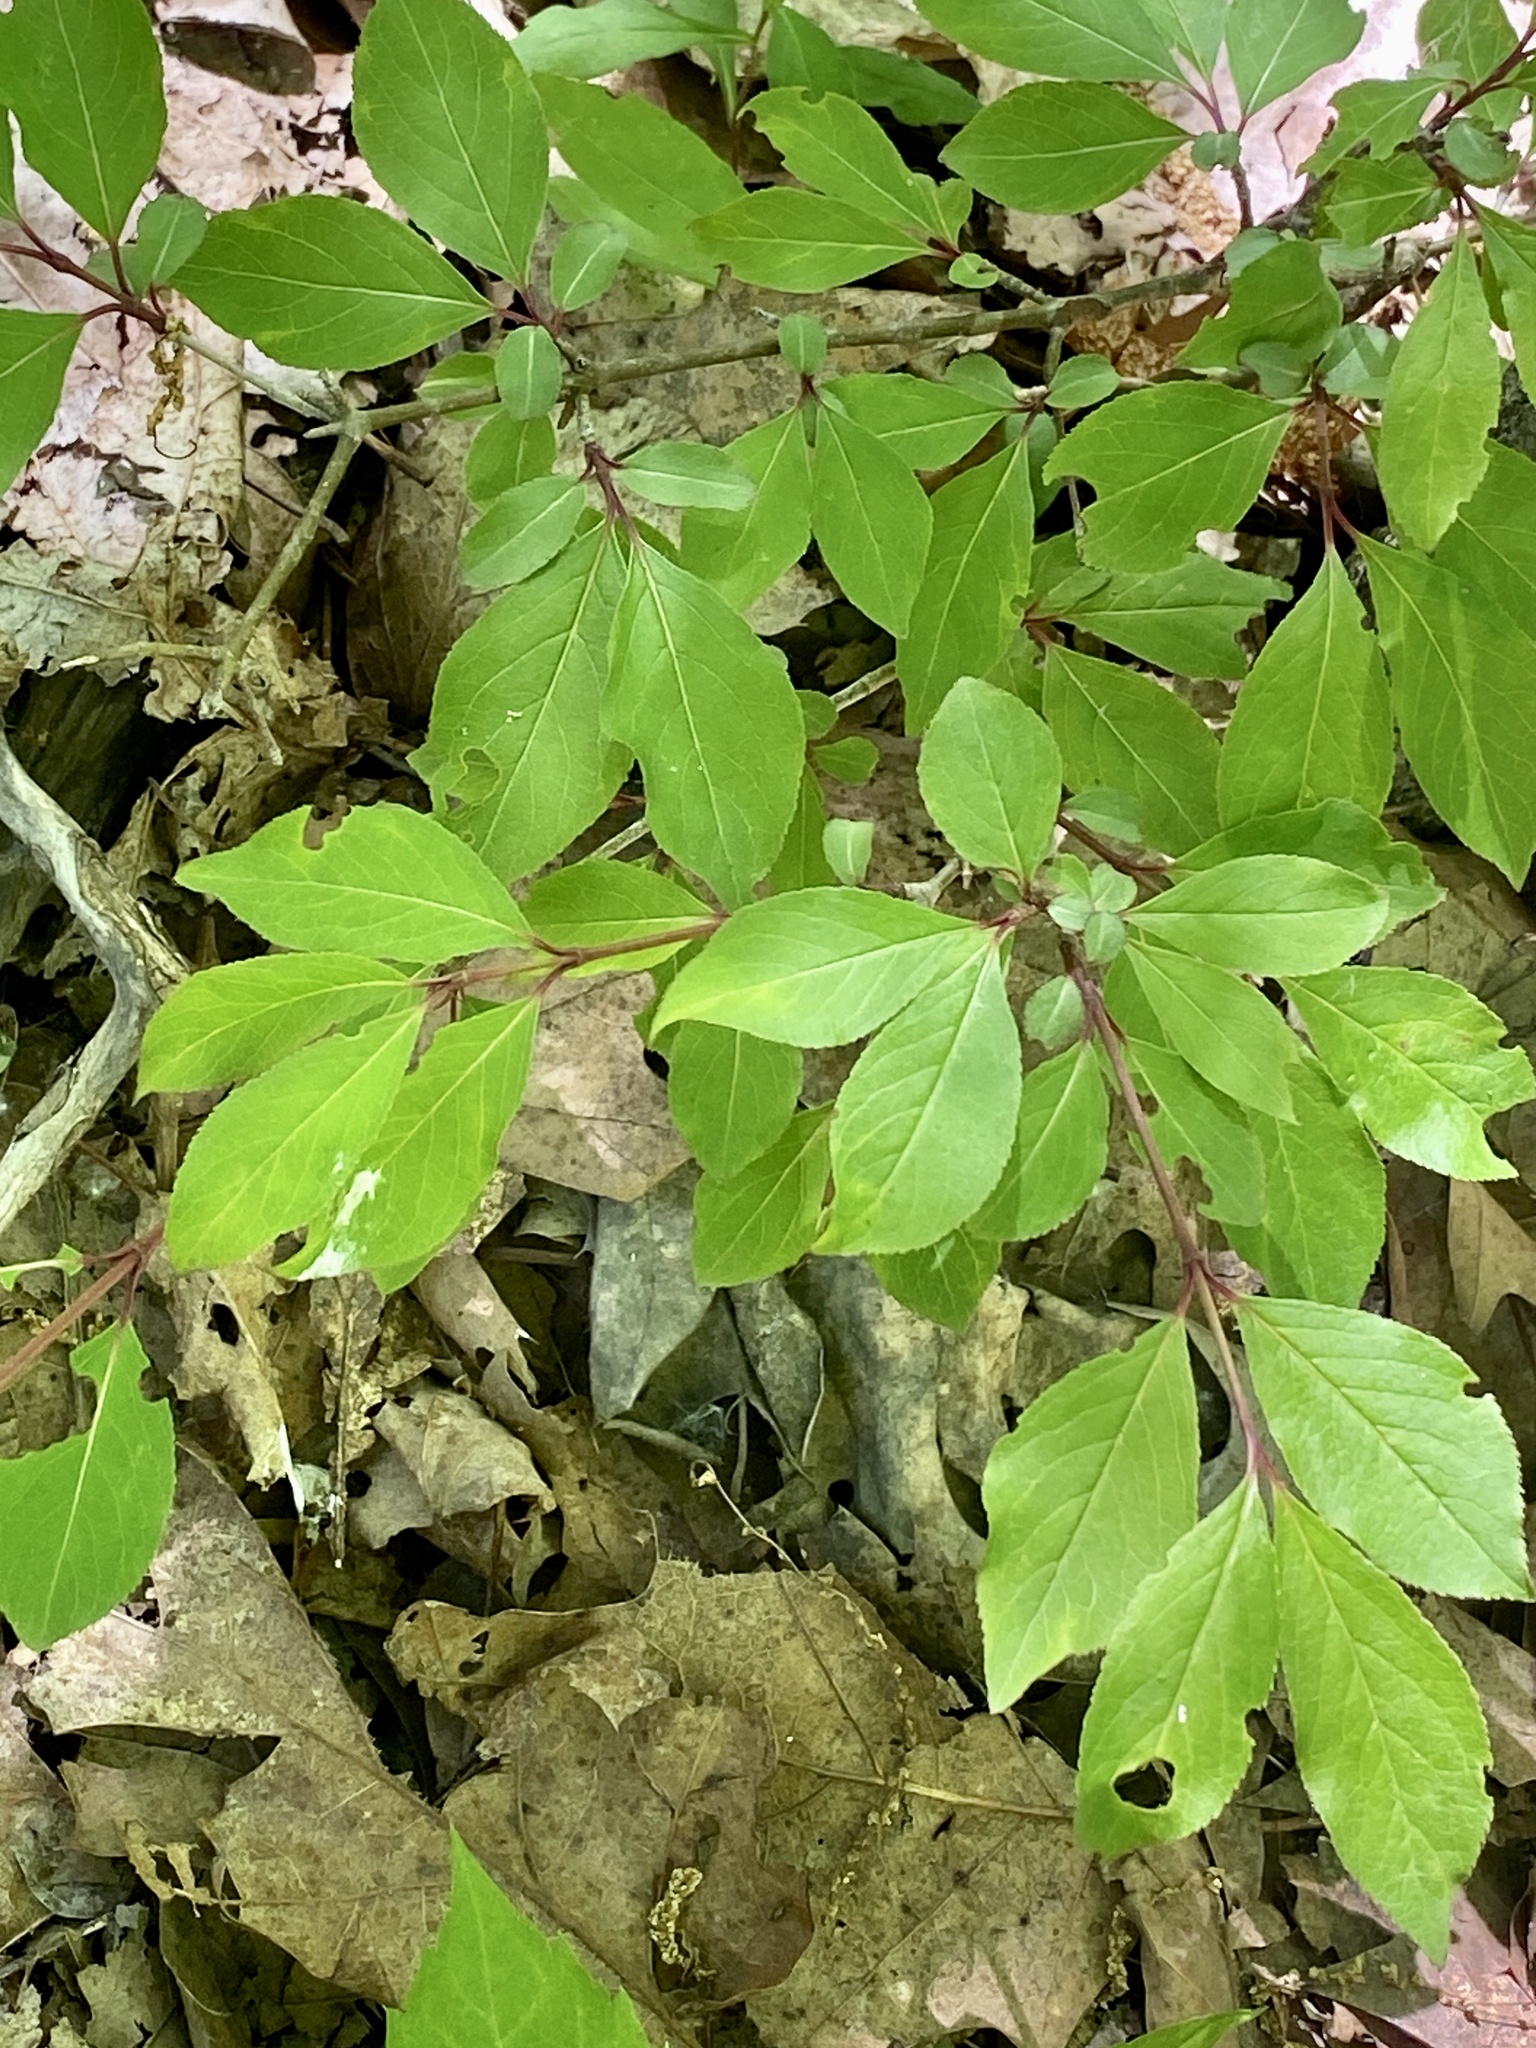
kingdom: Plantae
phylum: Tracheophyta
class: Magnoliopsida
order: Dipsacales
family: Viburnaceae
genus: Viburnum
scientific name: Viburnum prunifolium
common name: Black haw
